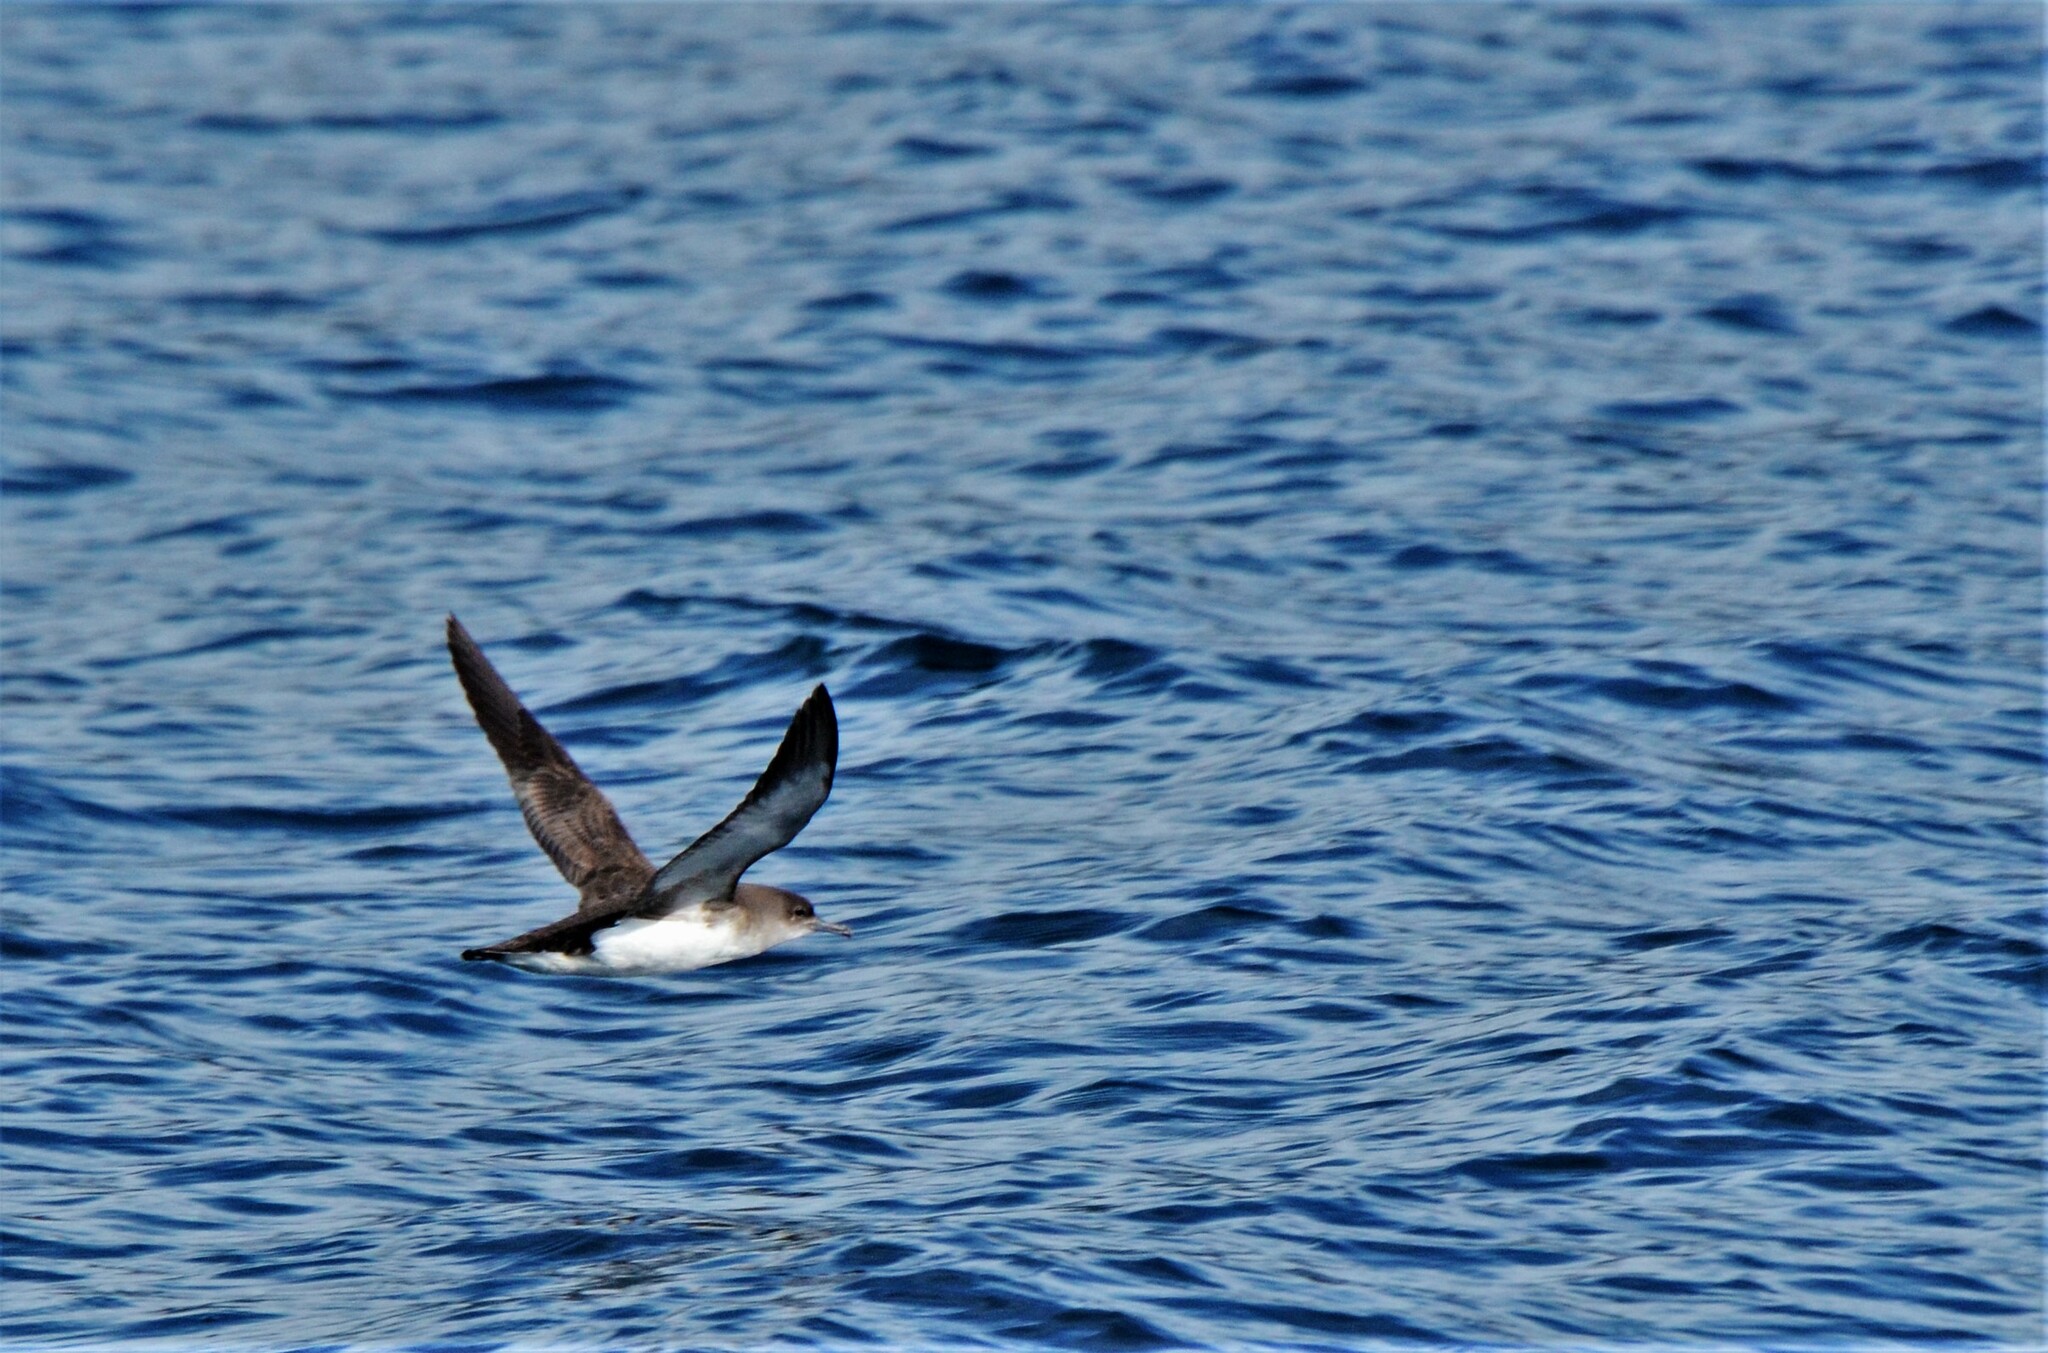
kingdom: Animalia
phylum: Chordata
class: Aves
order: Procellariiformes
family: Procellariidae
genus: Puffinus
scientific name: Puffinus gavia
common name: Fluttering shearwater
